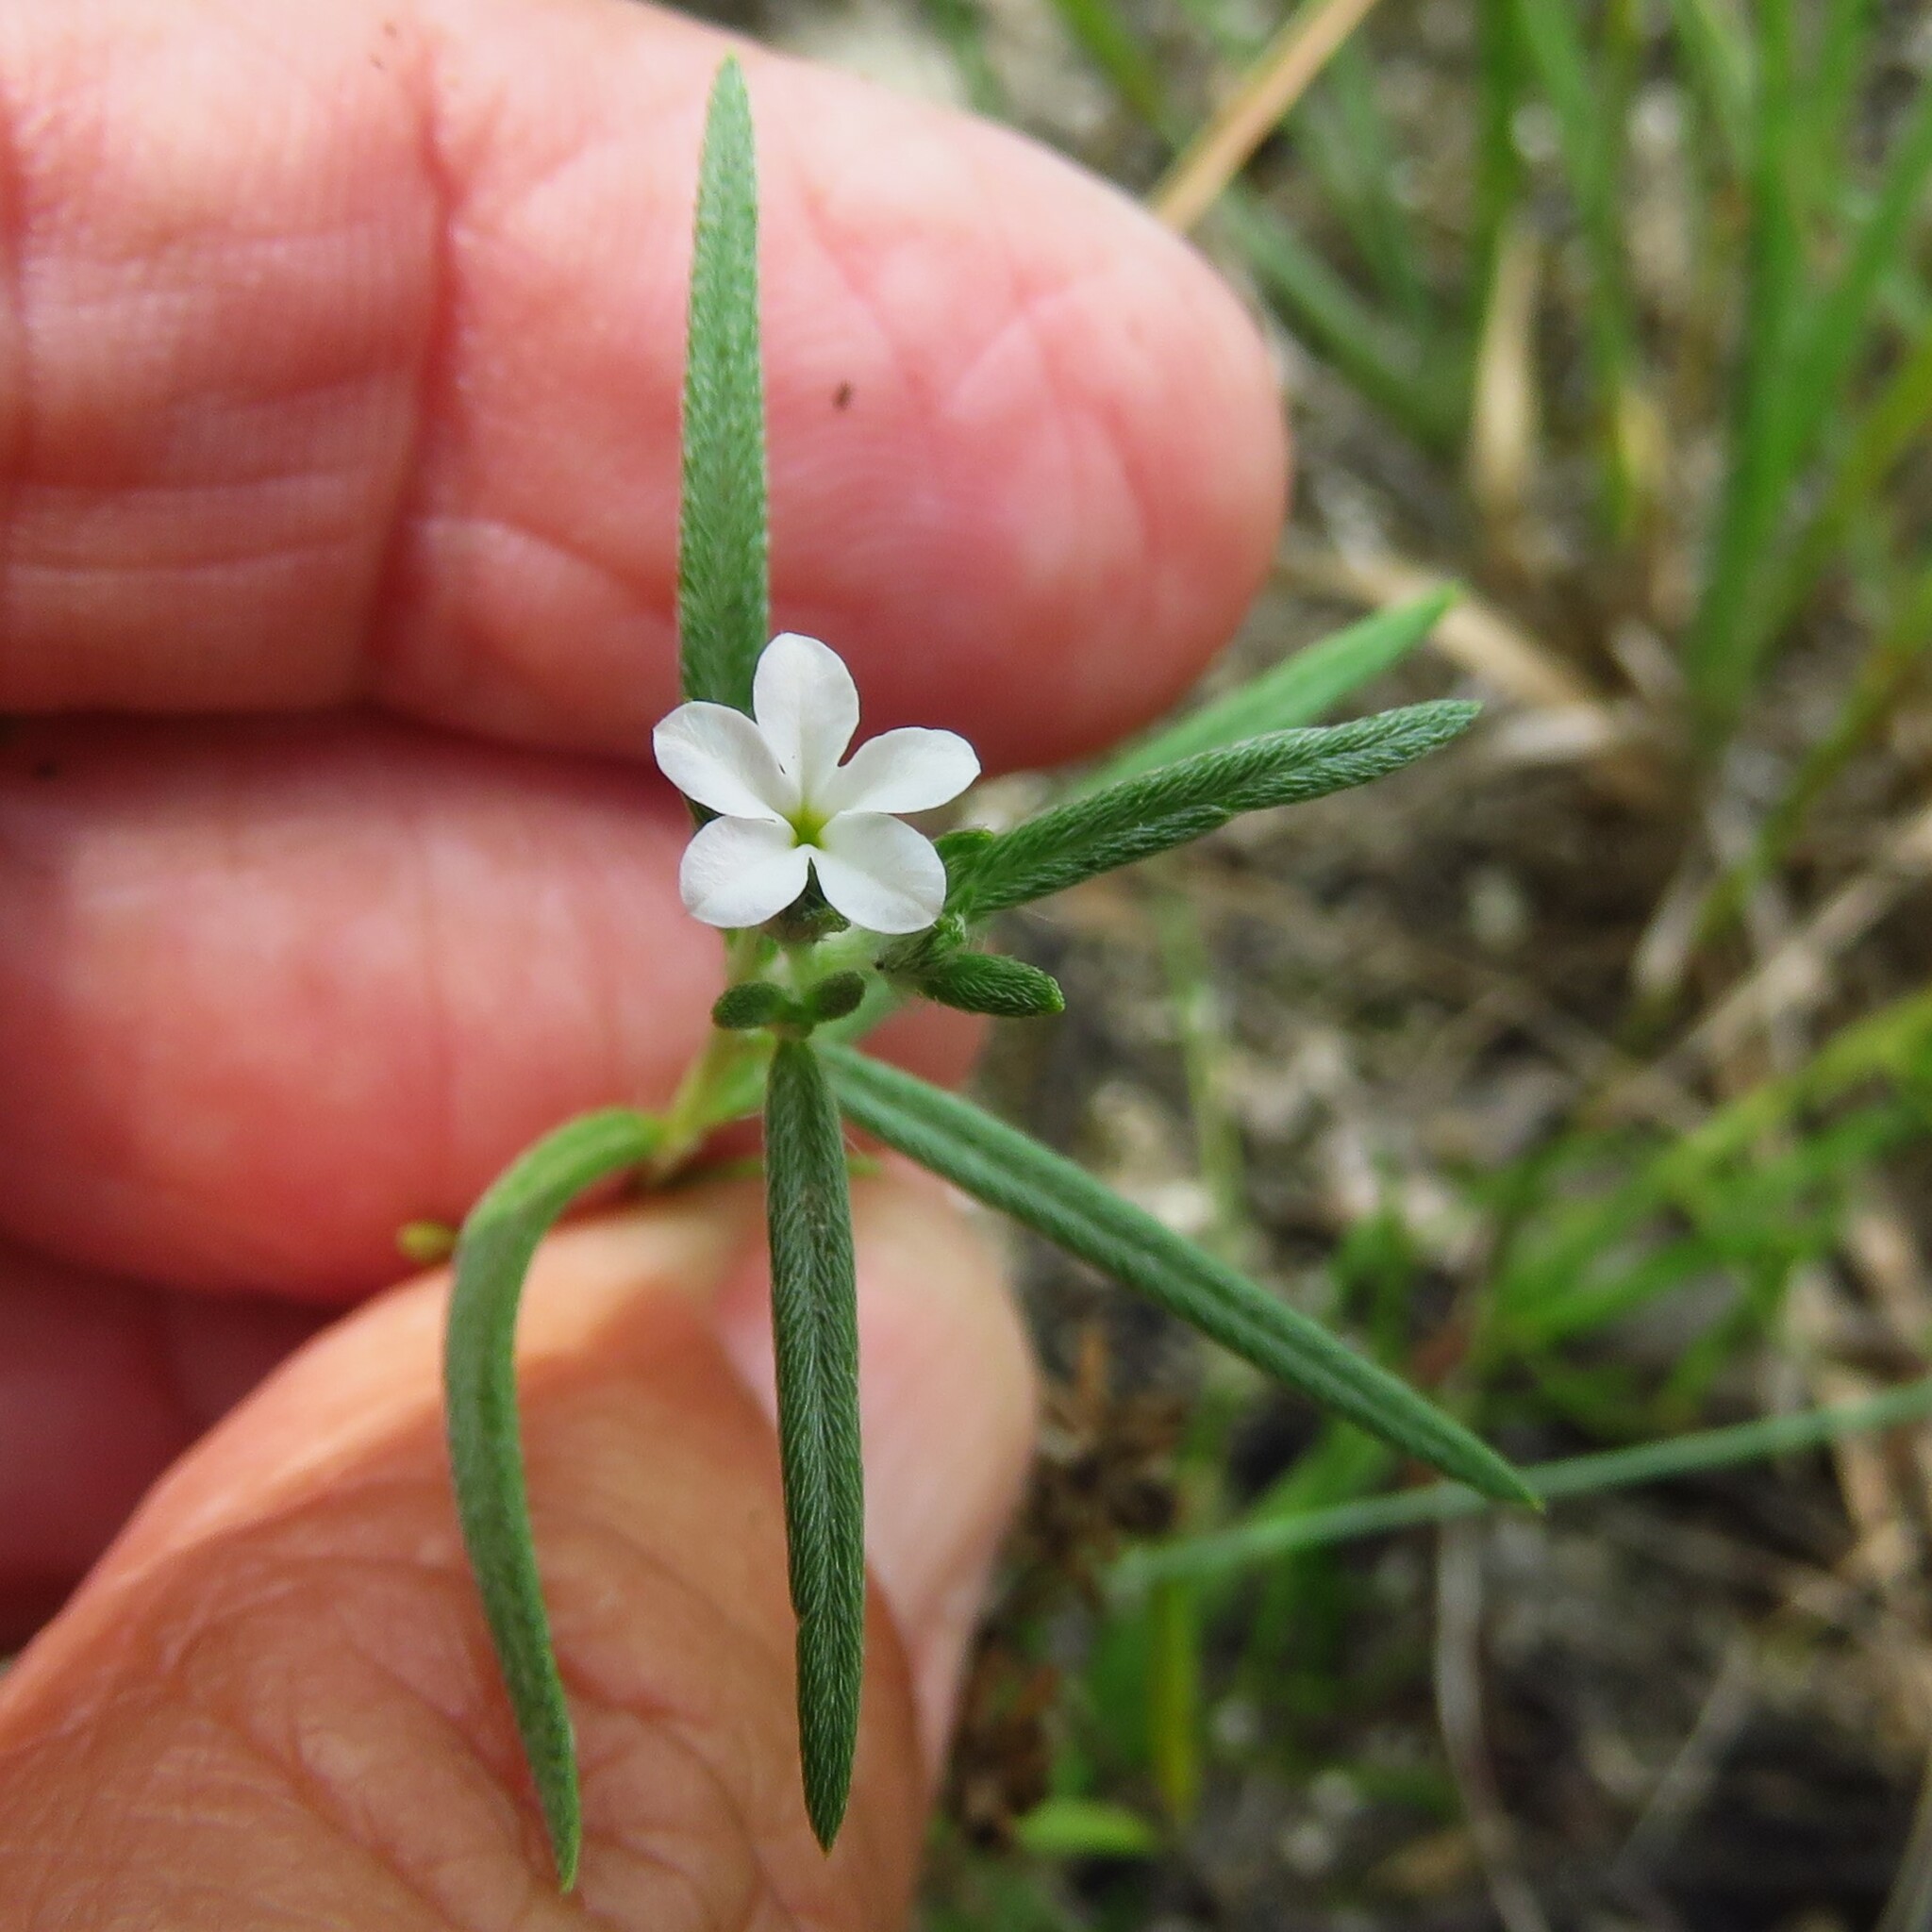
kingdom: Plantae
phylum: Tracheophyta
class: Magnoliopsida
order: Boraginales
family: Heliotropiaceae
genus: Euploca
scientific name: Euploca tenella
